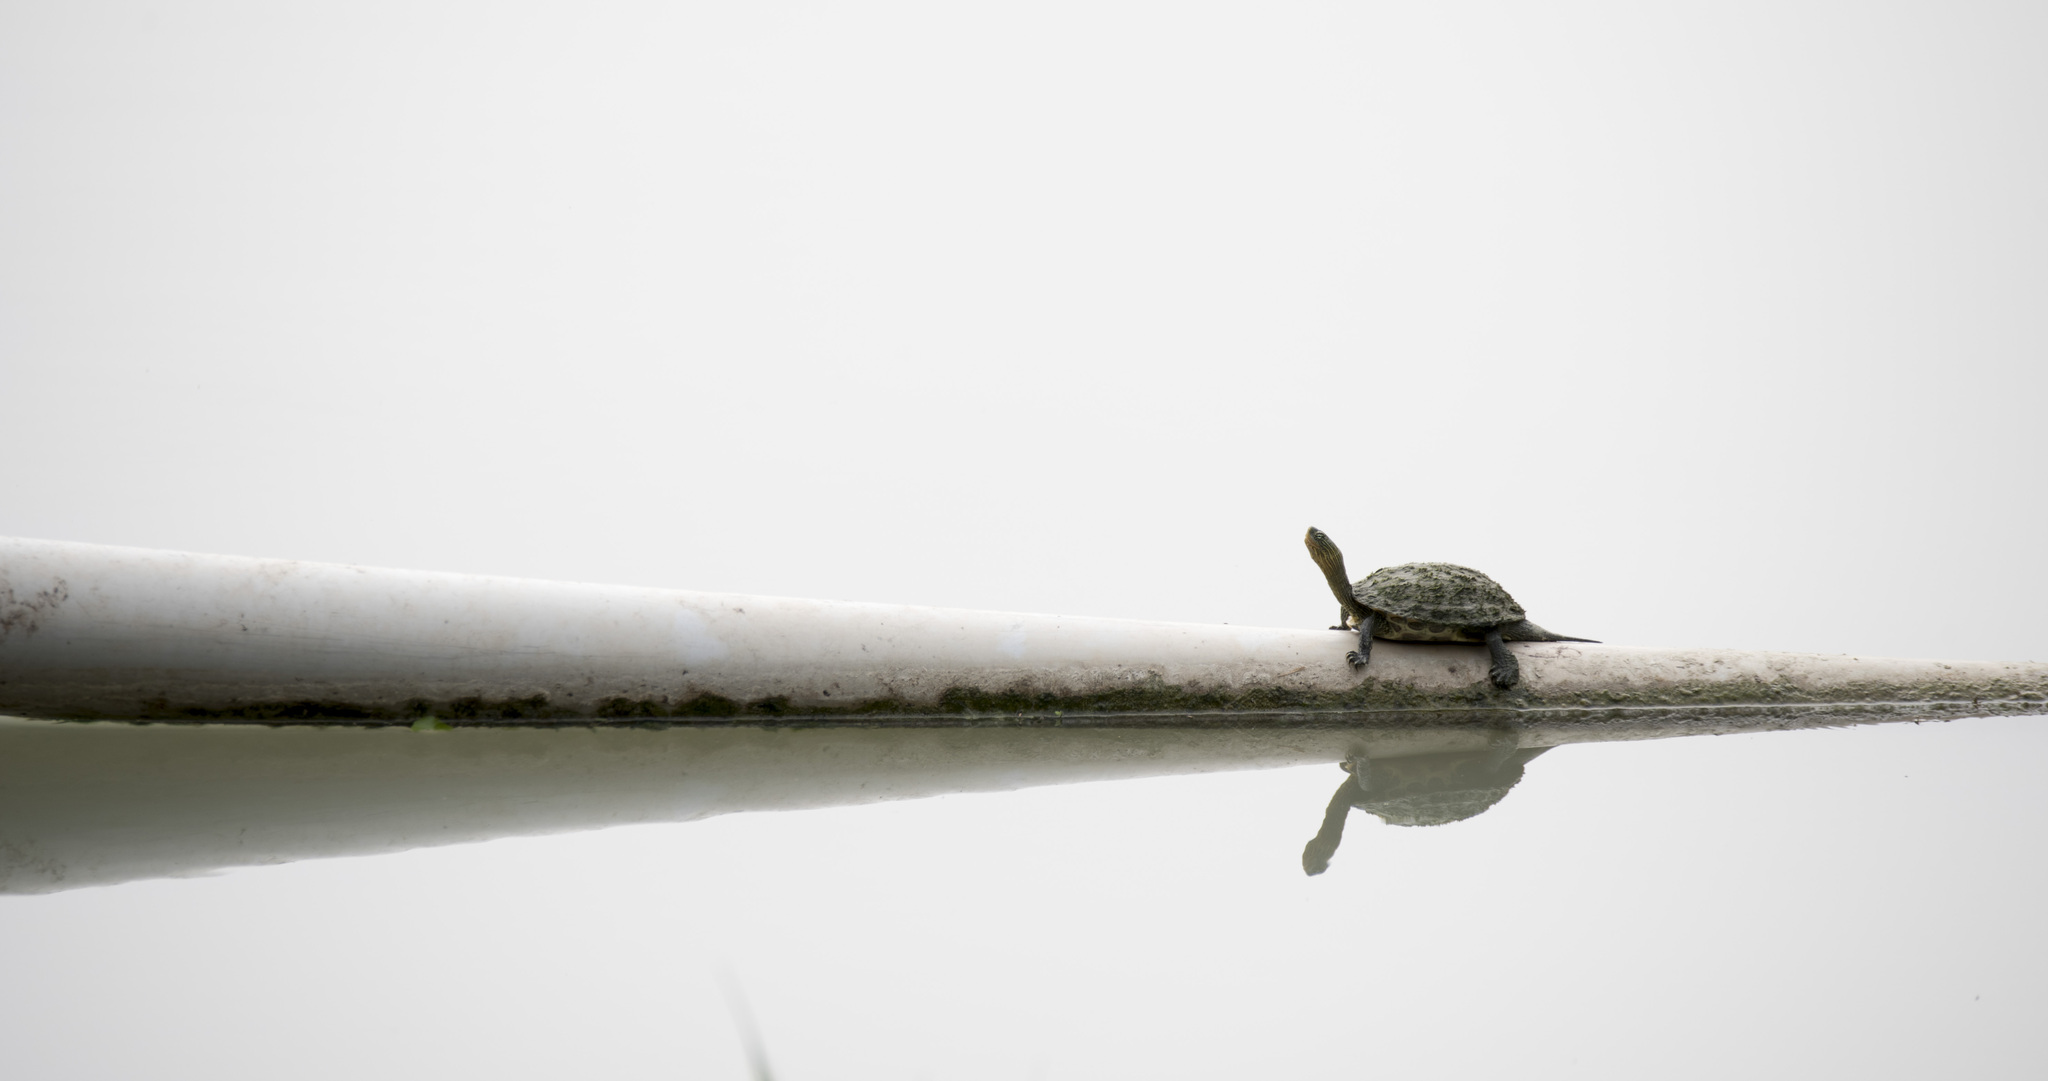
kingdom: Animalia
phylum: Chordata
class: Testudines
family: Geoemydidae
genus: Mauremys
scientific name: Mauremys sinensis
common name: Chinese stripe-necked turtle
